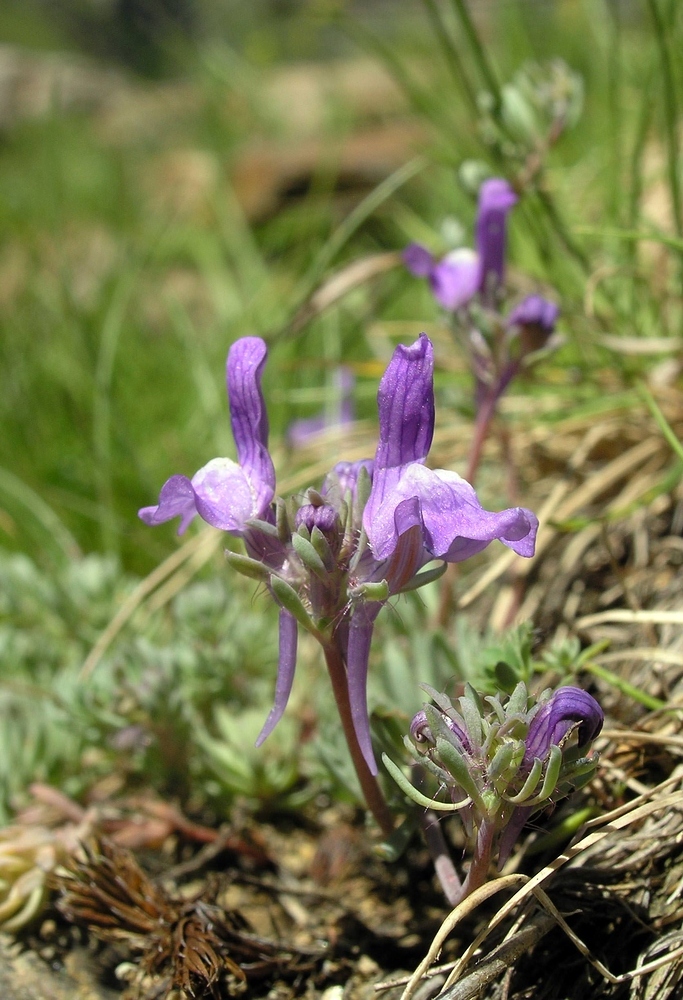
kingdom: Plantae
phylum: Tracheophyta
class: Magnoliopsida
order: Lamiales
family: Plantaginaceae
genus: Linaria
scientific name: Linaria alpina
